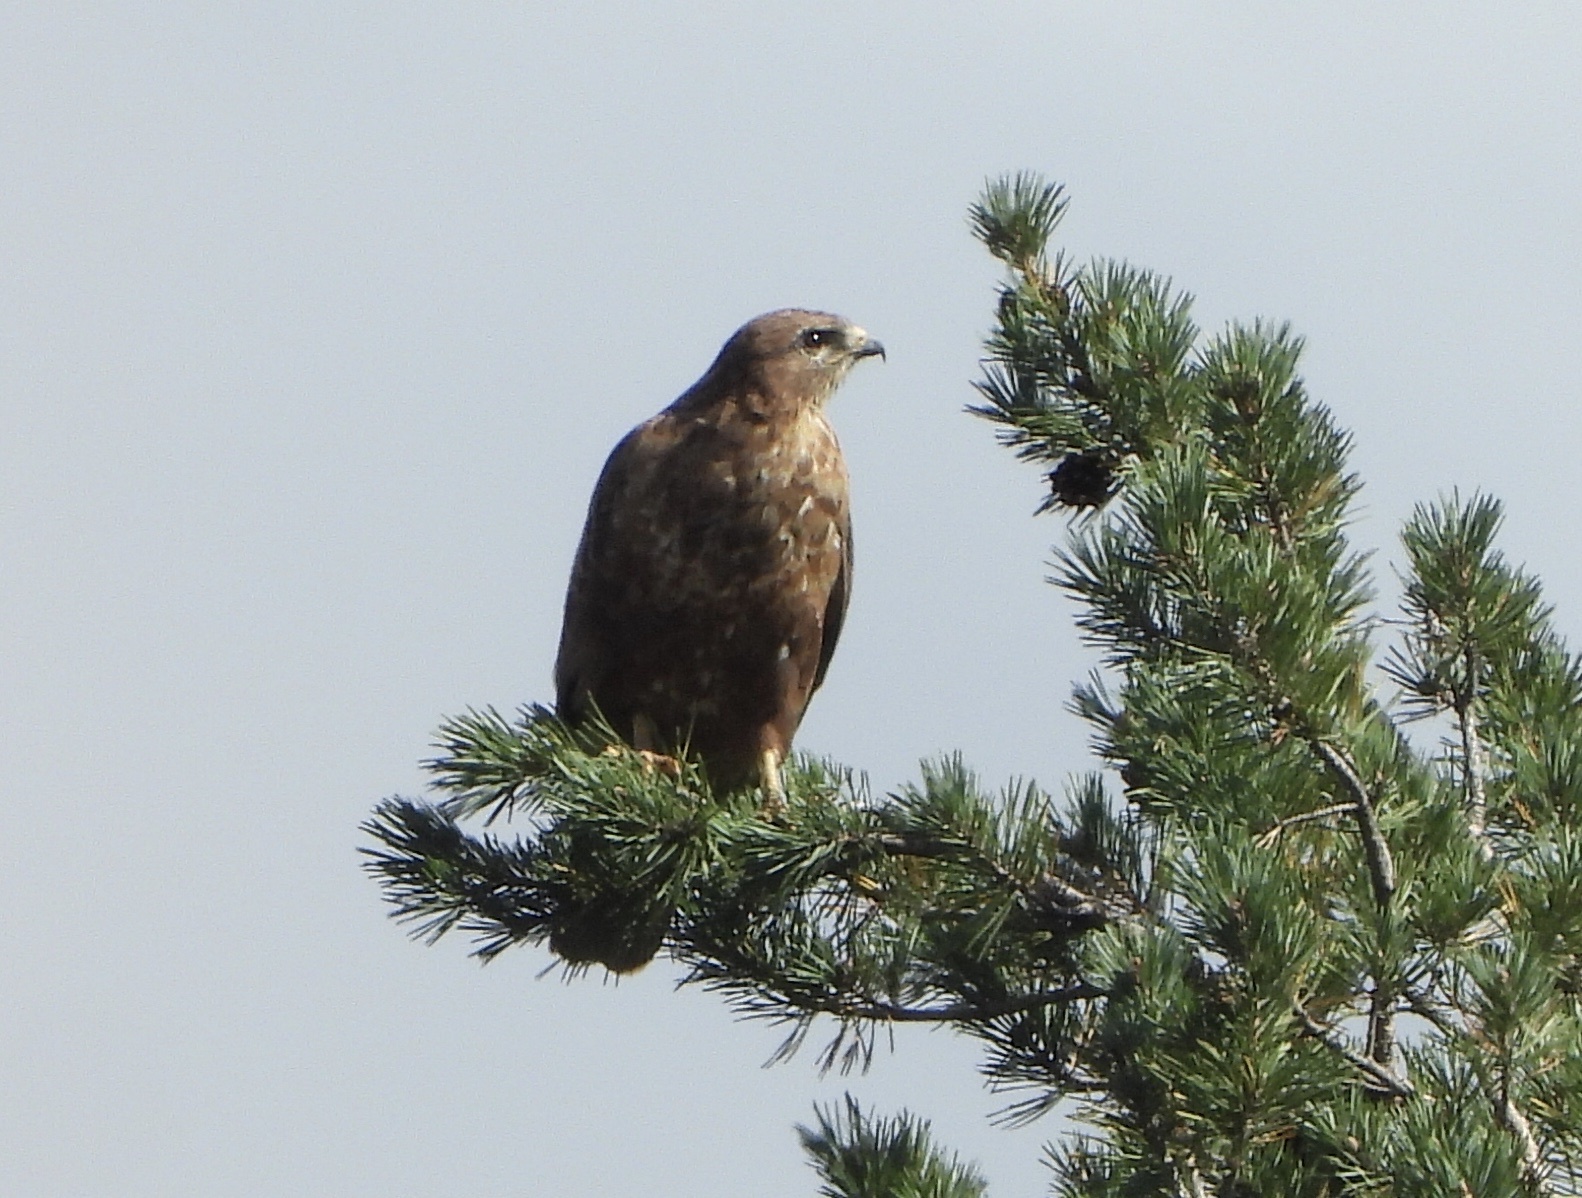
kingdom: Animalia
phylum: Chordata
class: Aves
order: Accipitriformes
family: Accipitridae
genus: Buteo
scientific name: Buteo buteo
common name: Common buzzard
